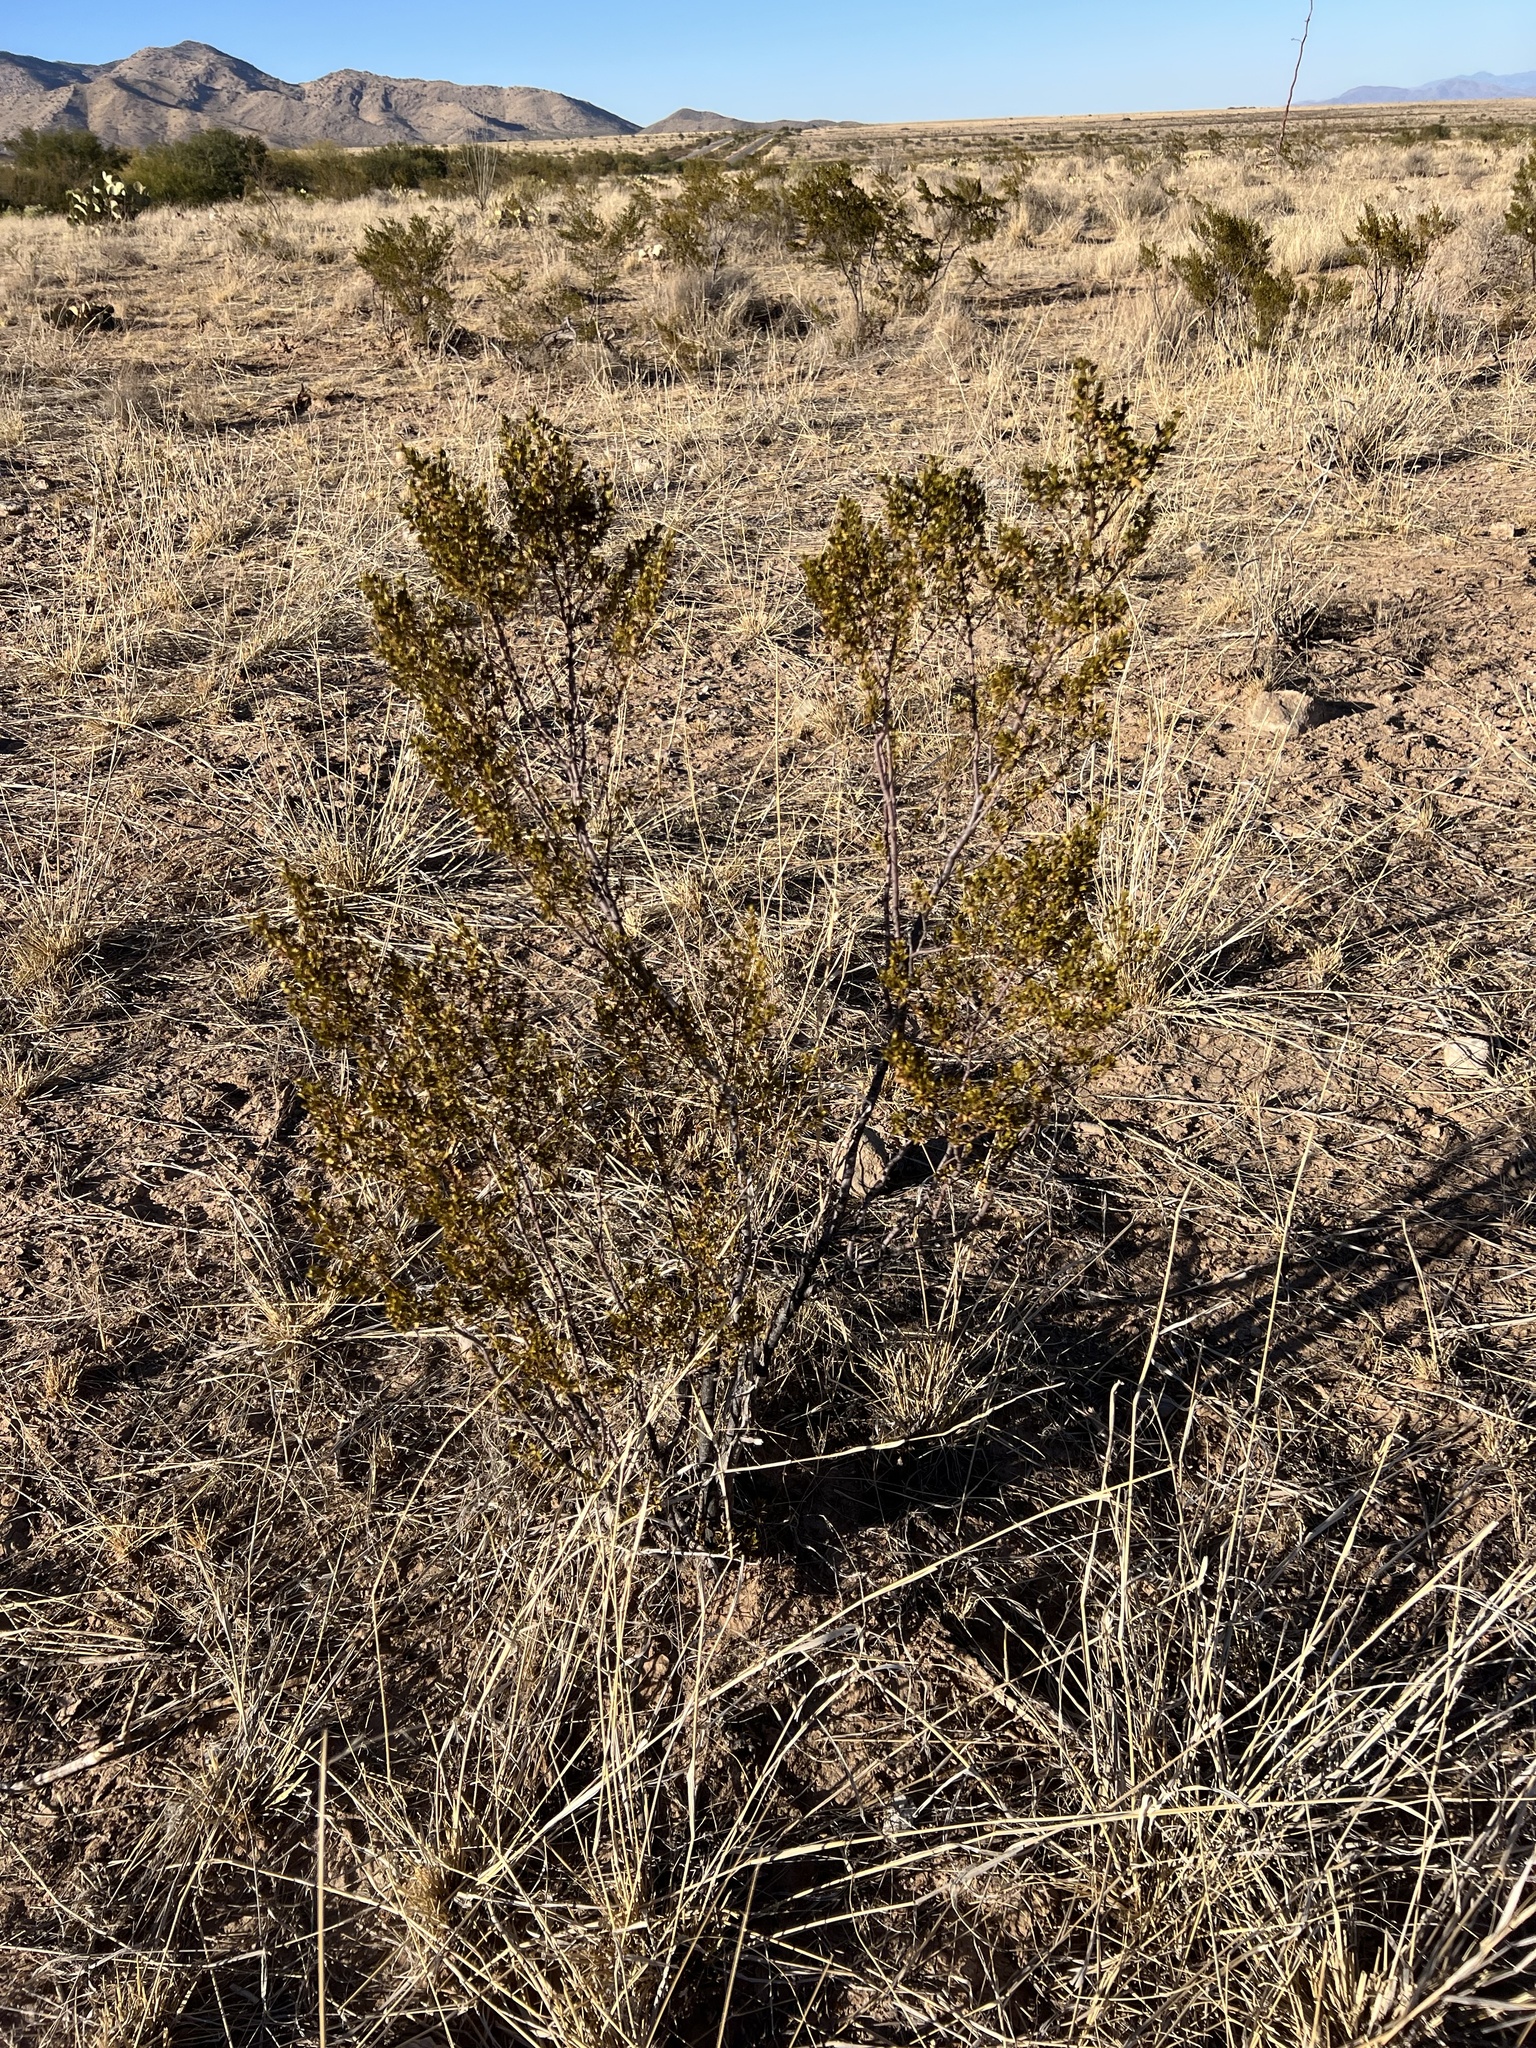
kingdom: Plantae
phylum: Tracheophyta
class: Magnoliopsida
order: Zygophyllales
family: Zygophyllaceae
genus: Larrea
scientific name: Larrea tridentata
